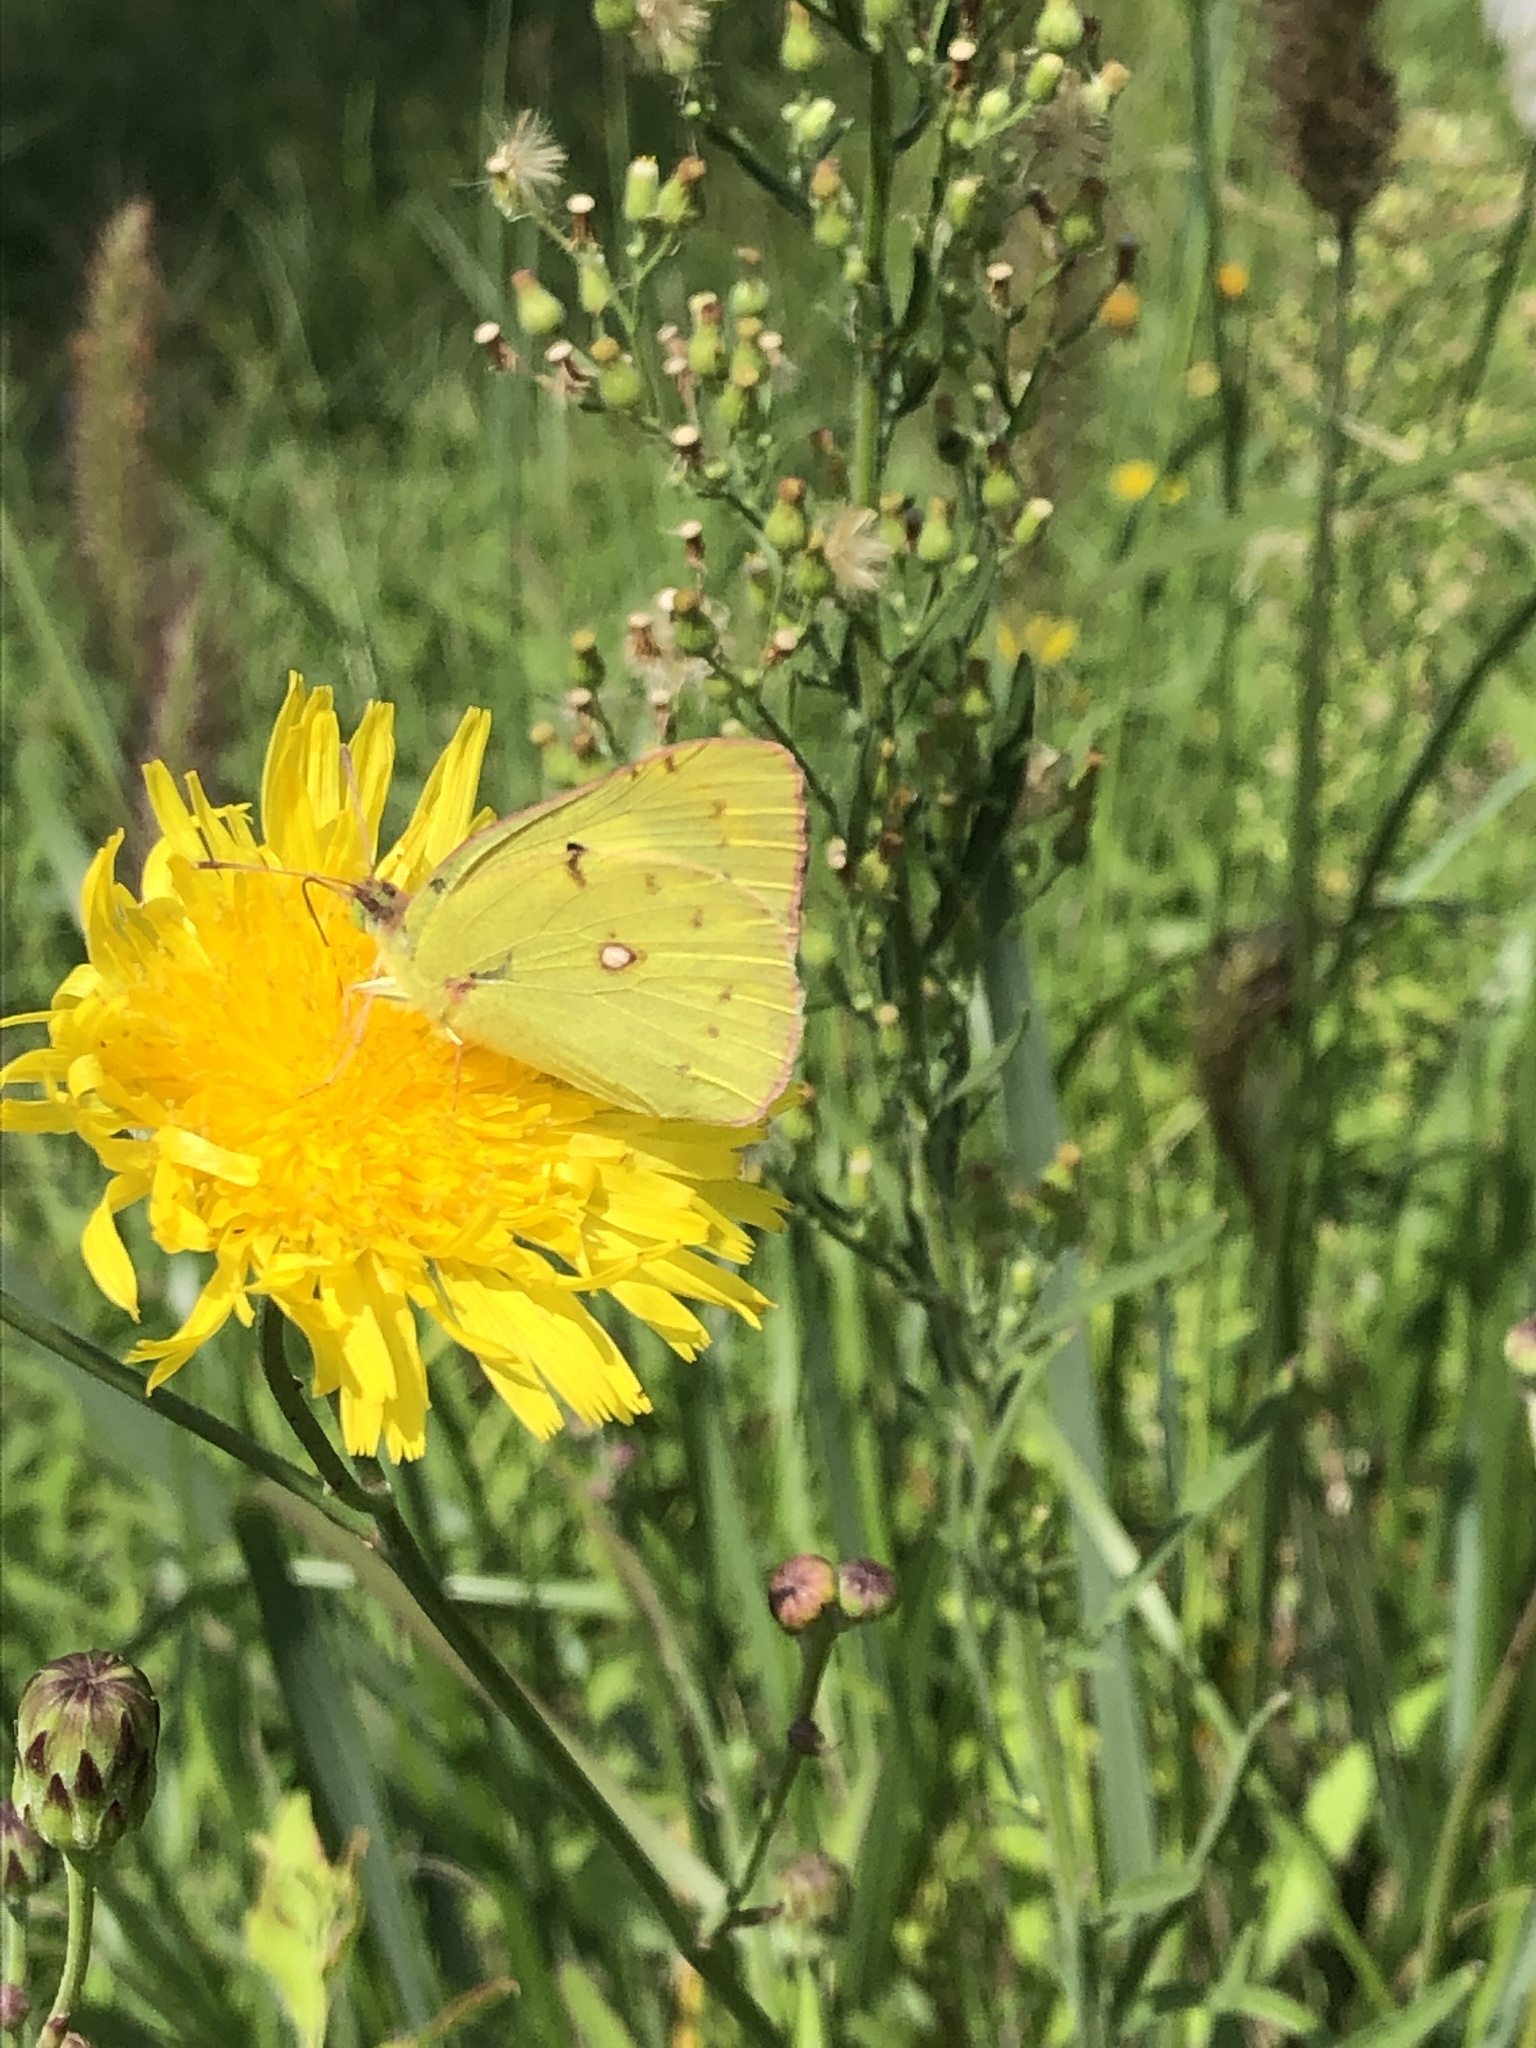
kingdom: Animalia
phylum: Arthropoda
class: Insecta
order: Lepidoptera
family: Pieridae
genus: Colias
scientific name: Colias poliographus
